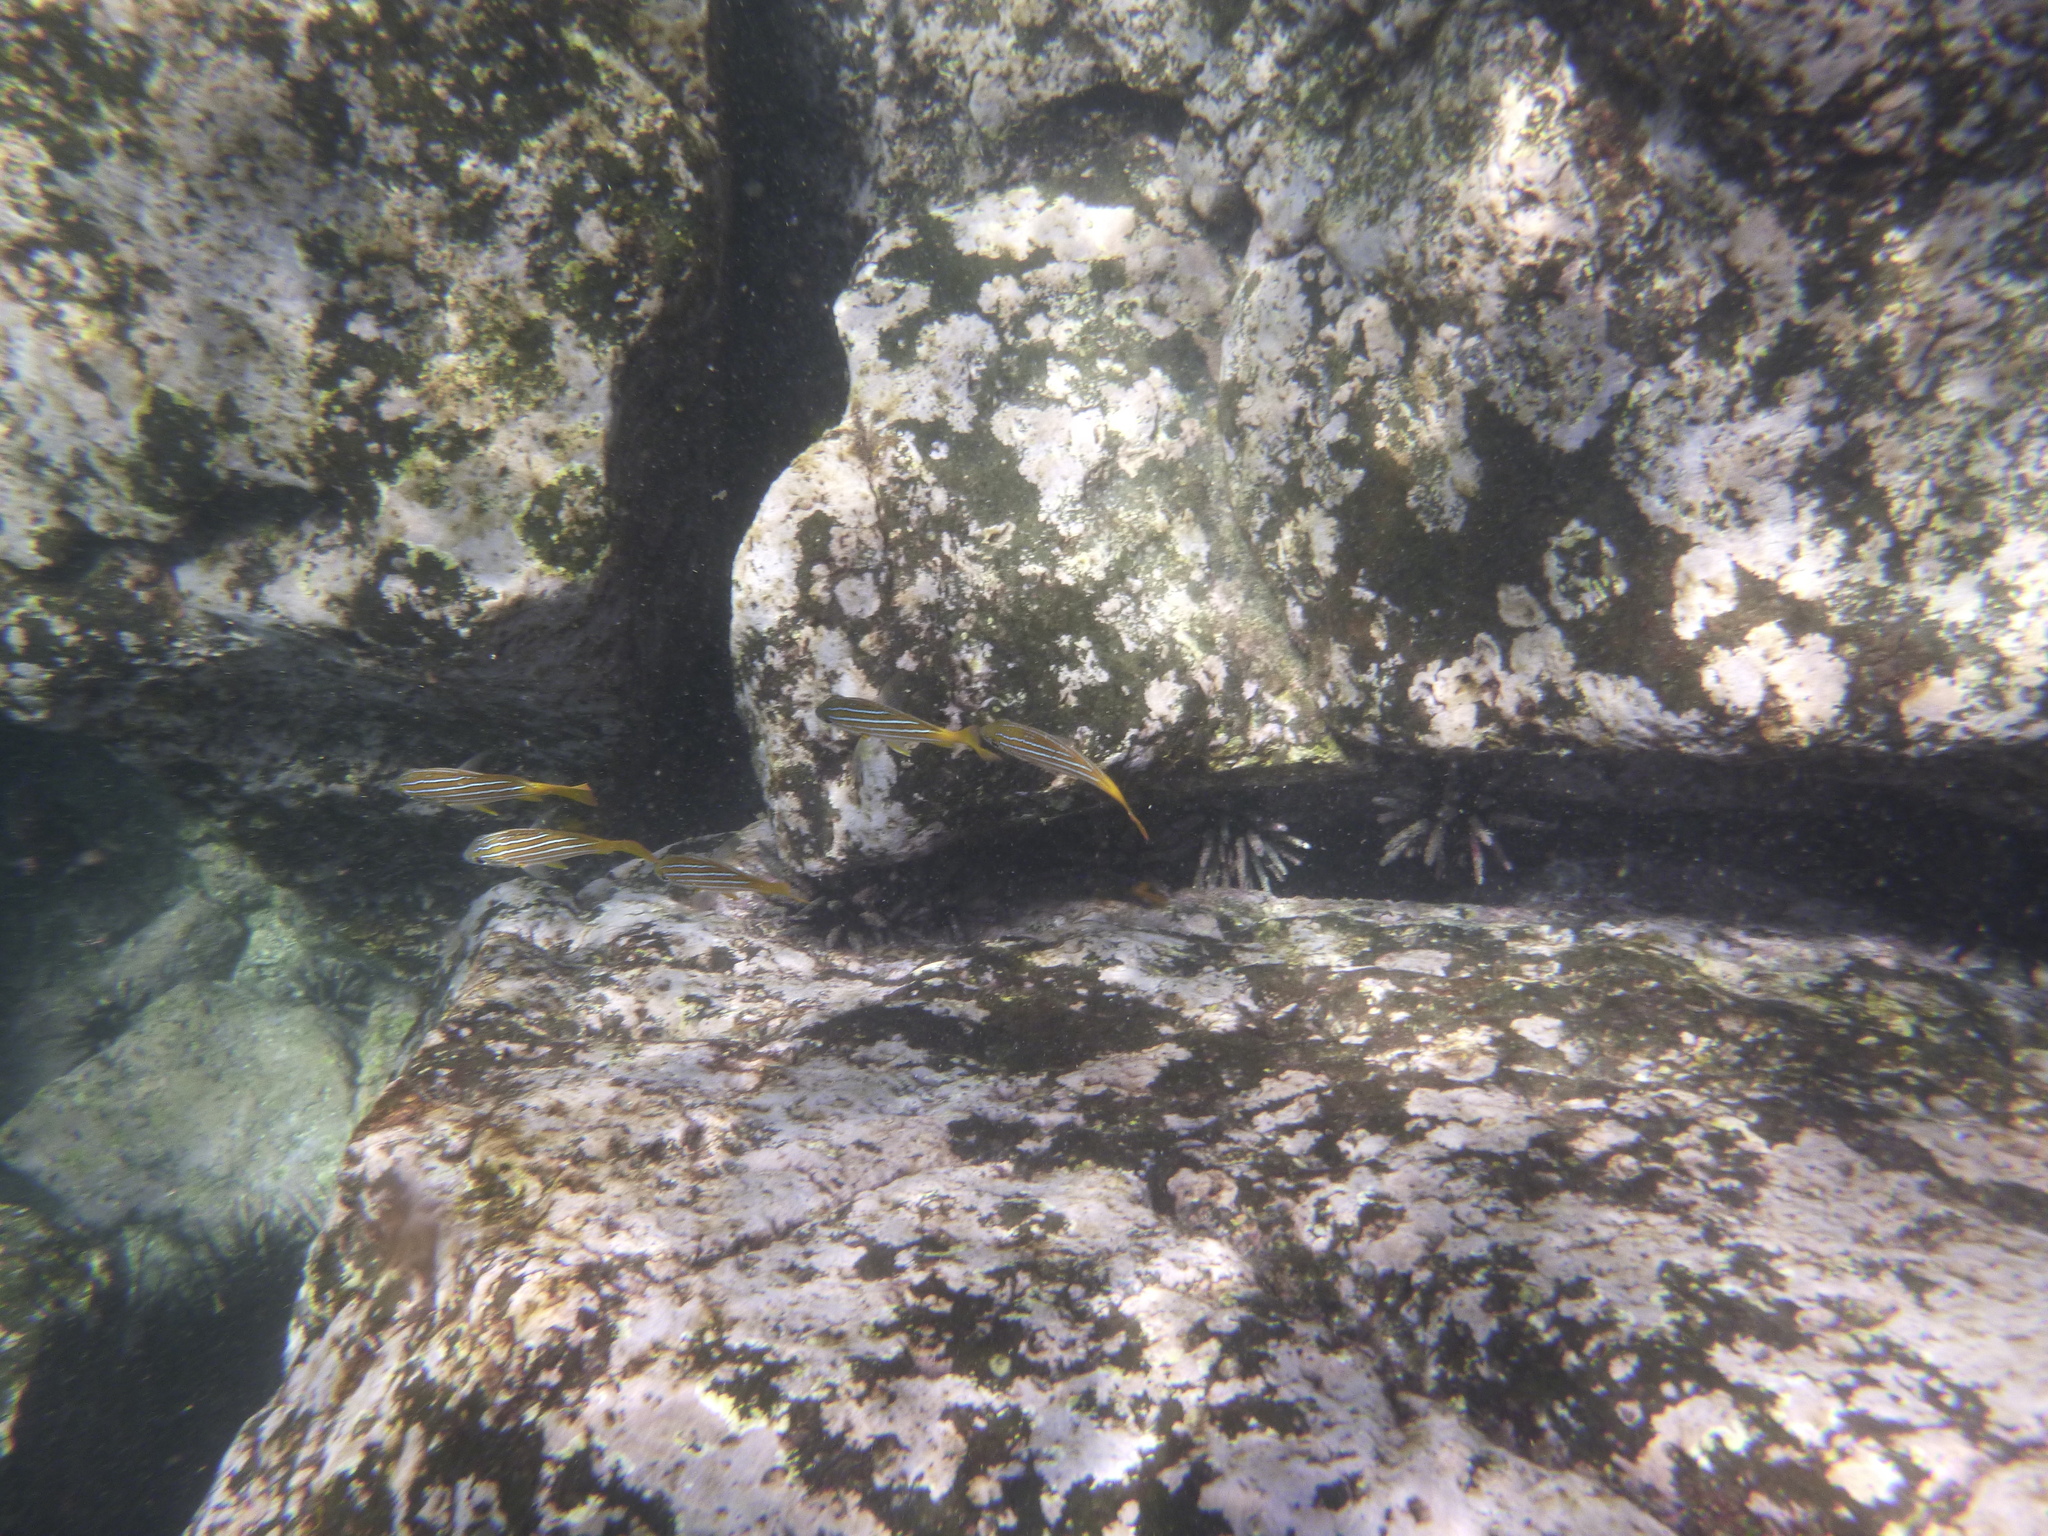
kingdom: Animalia
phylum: Chordata
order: Perciformes
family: Lutjanidae
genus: Lutjanus
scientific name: Lutjanus viridis
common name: Blue and gold snapper
